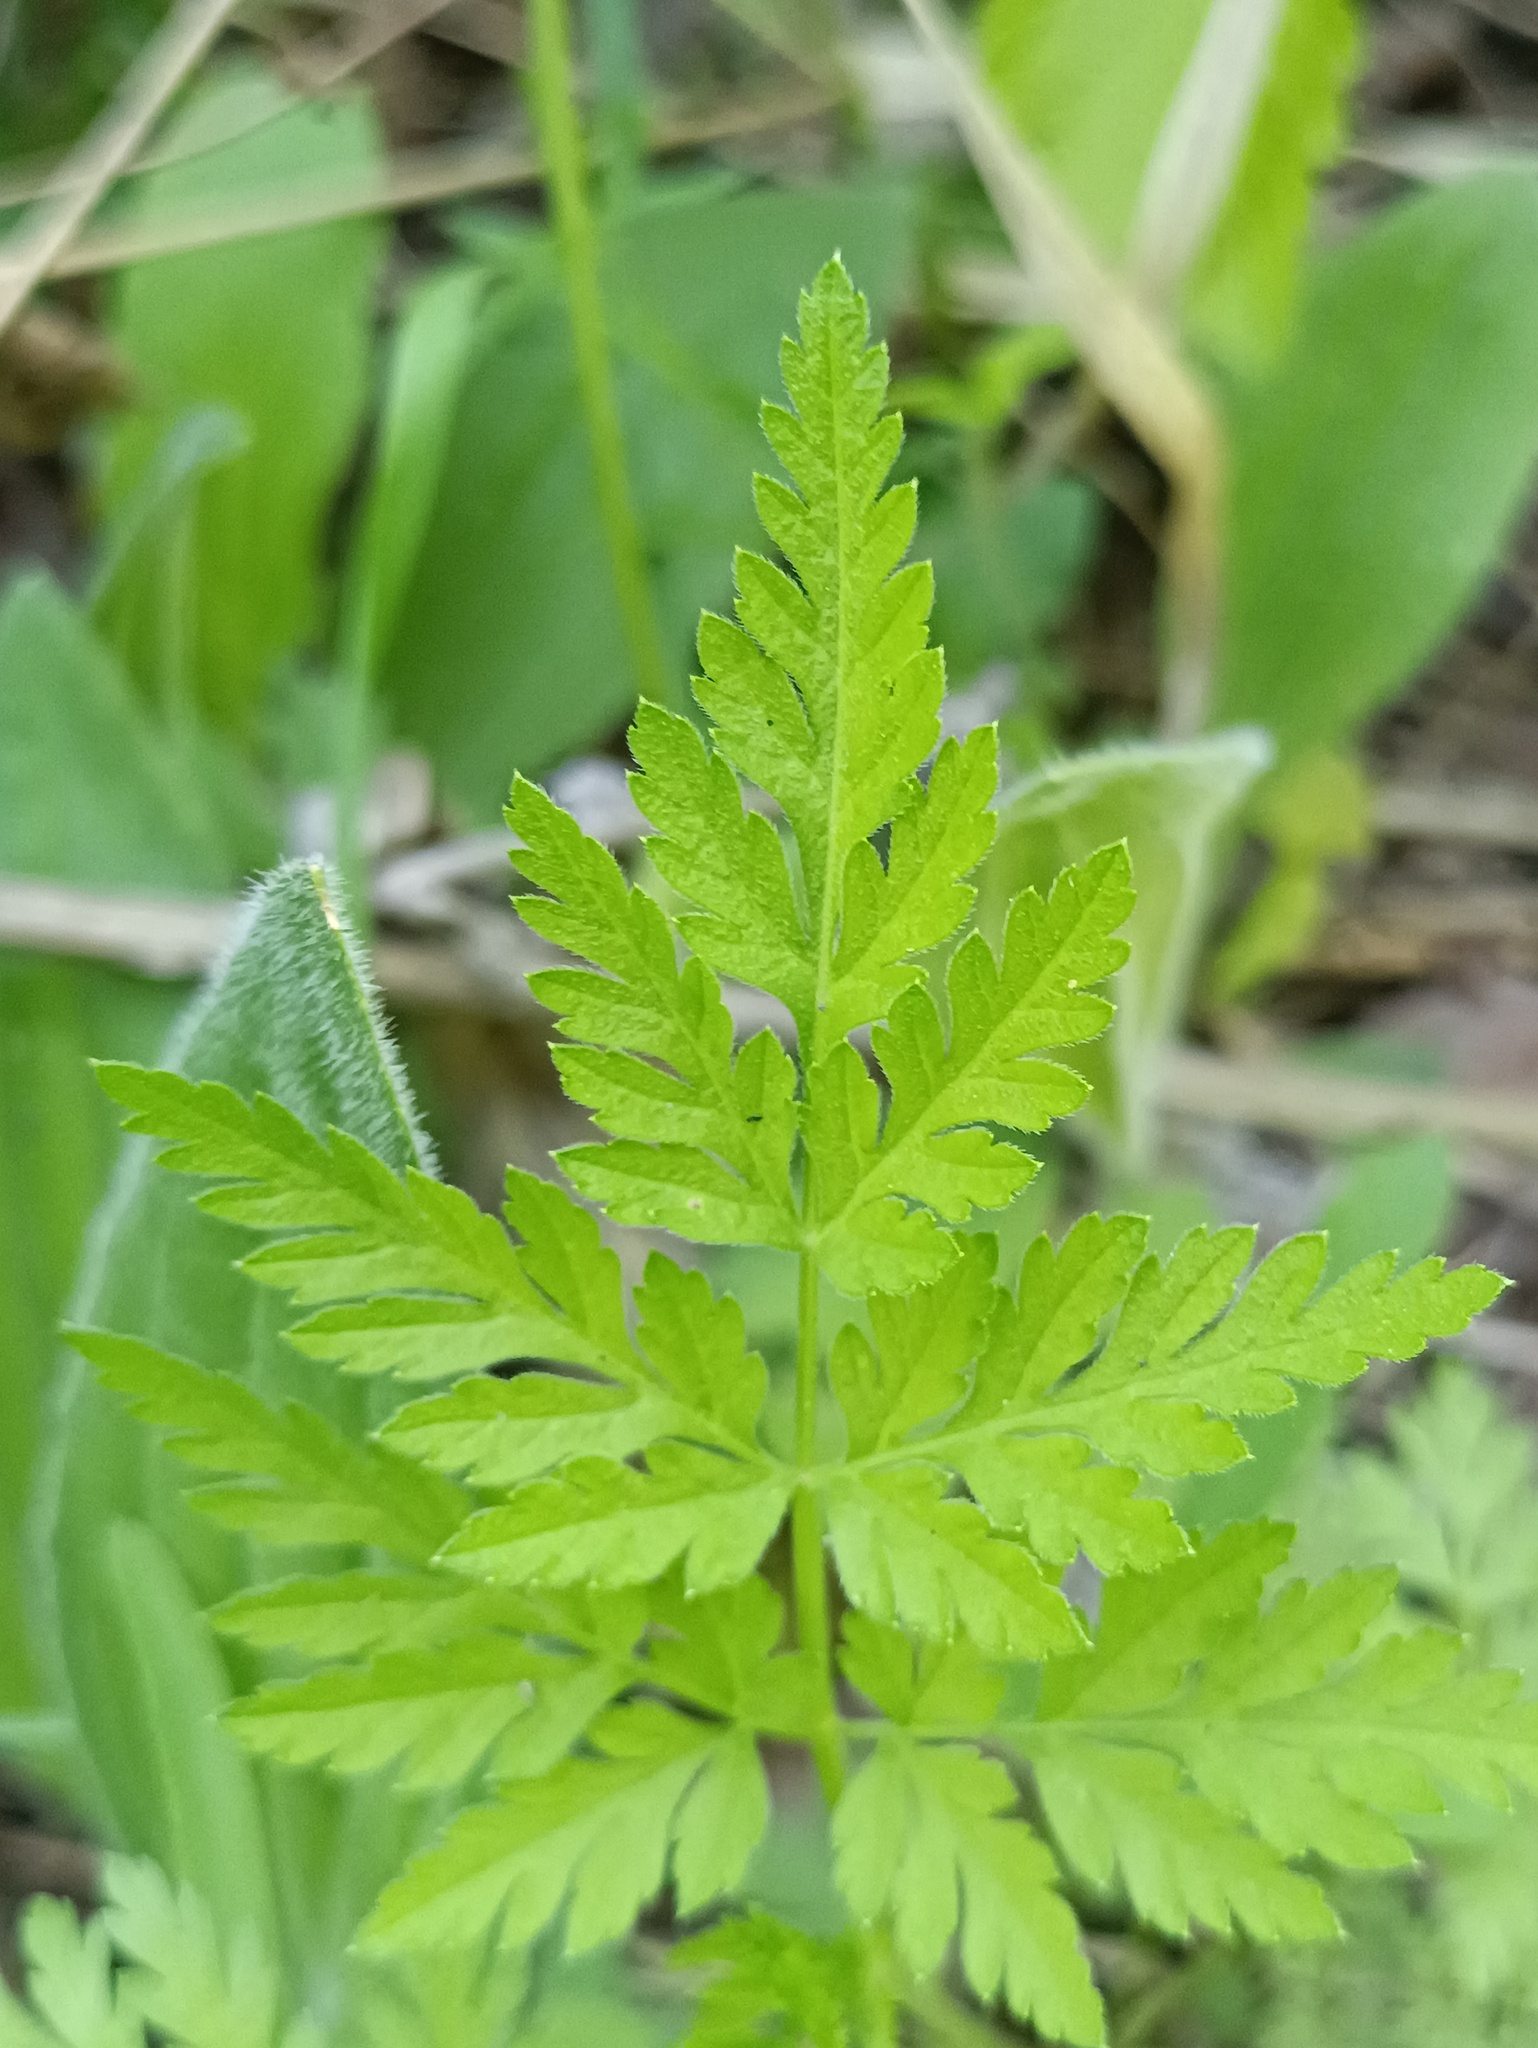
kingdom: Plantae
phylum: Tracheophyta
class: Magnoliopsida
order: Apiales
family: Apiaceae
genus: Torilis
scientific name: Torilis japonica
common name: Upright hedge-parsley
